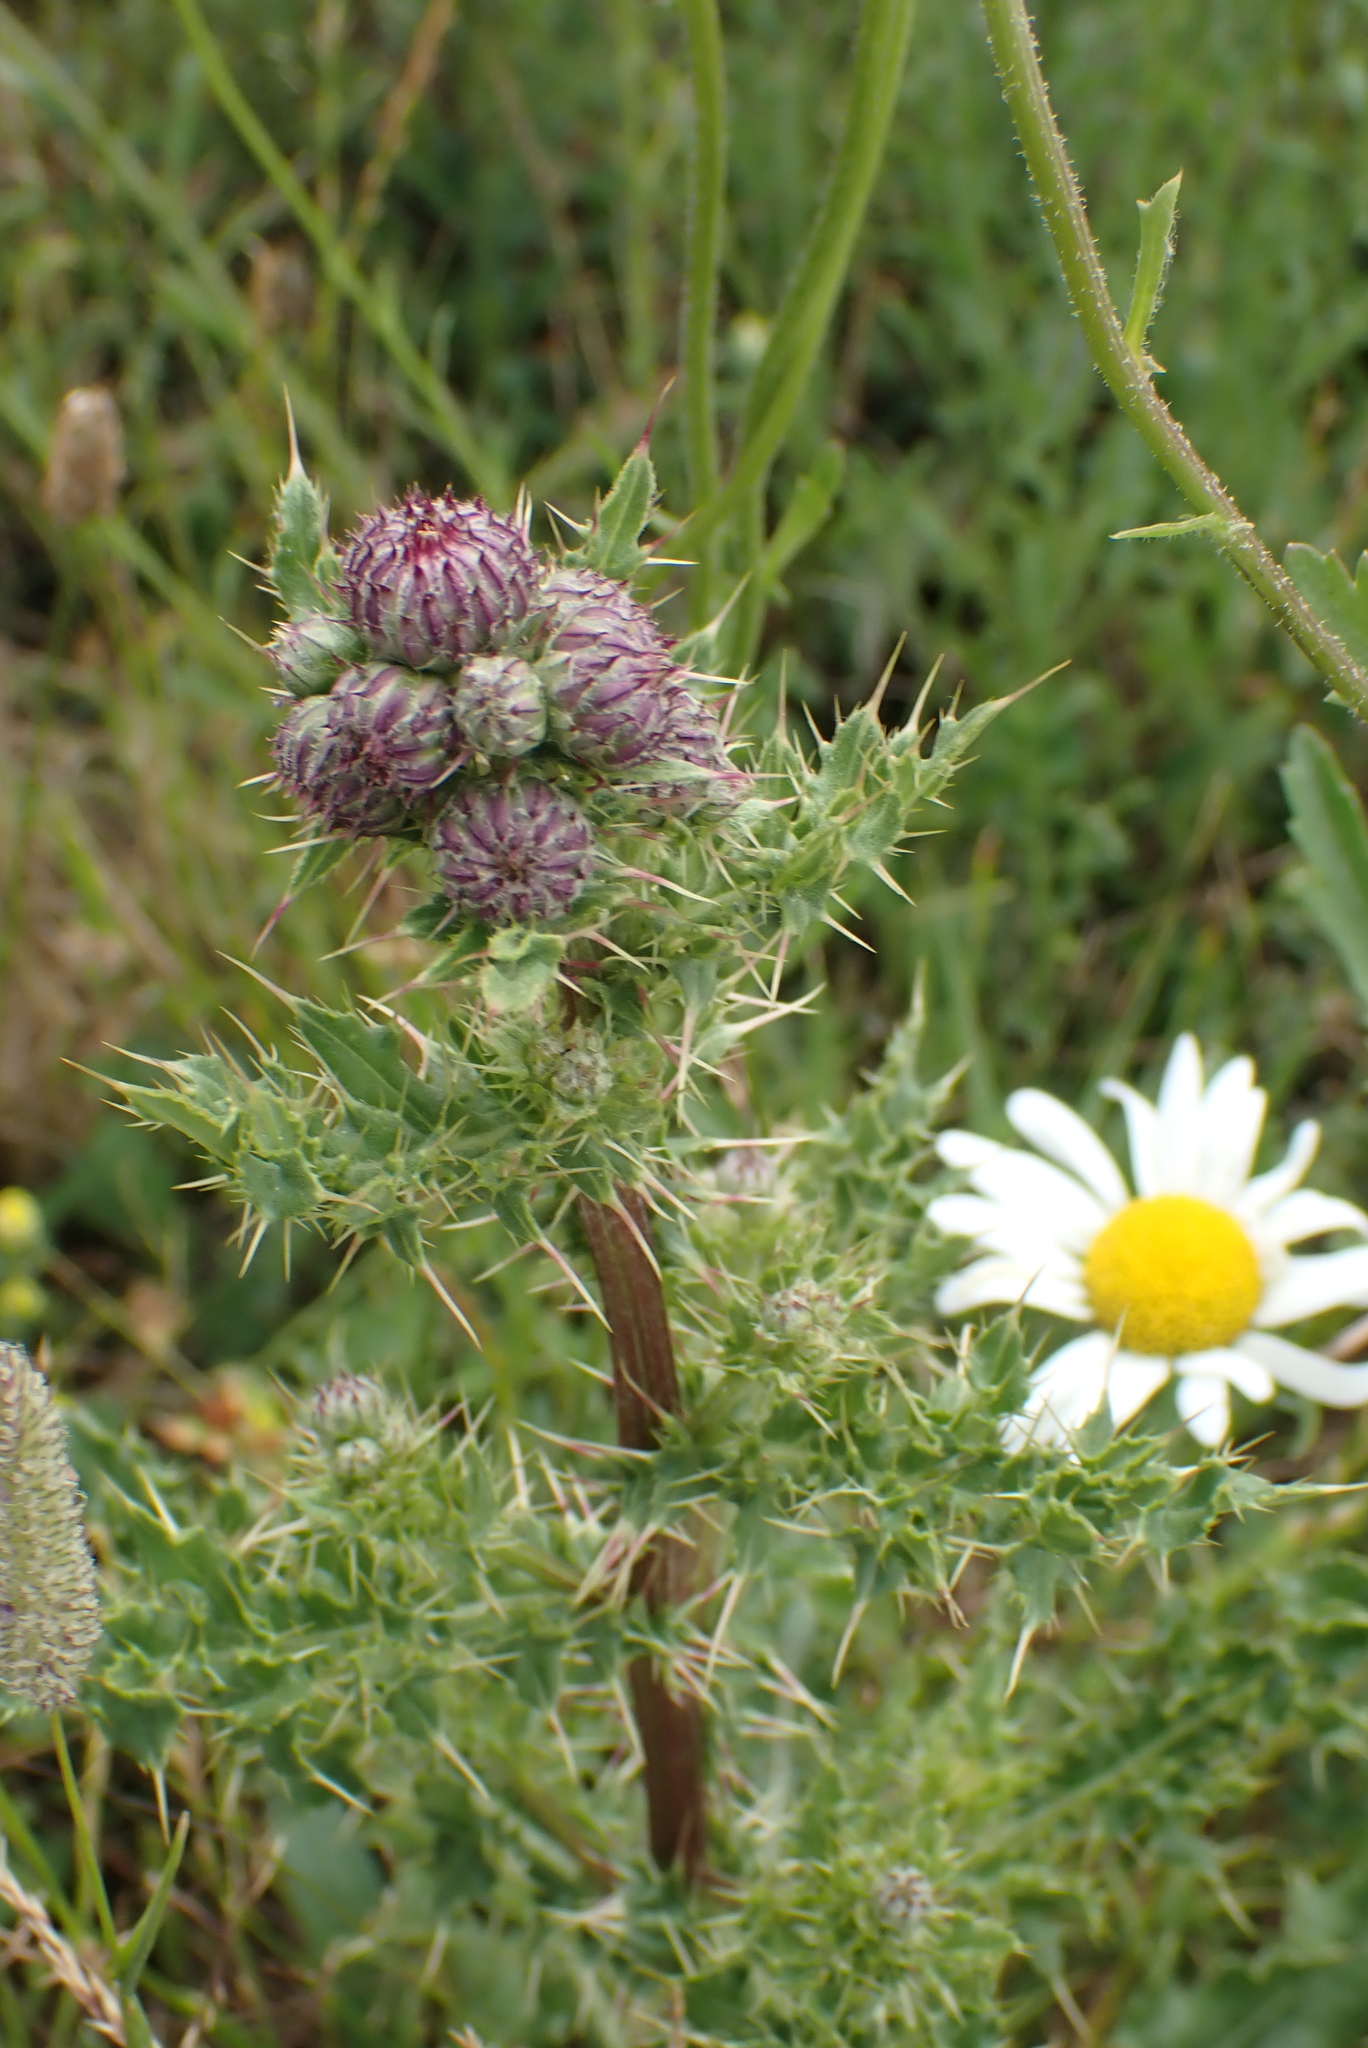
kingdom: Plantae
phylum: Tracheophyta
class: Magnoliopsida
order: Asterales
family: Asteraceae
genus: Cirsium
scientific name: Cirsium arvense
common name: Creeping thistle
